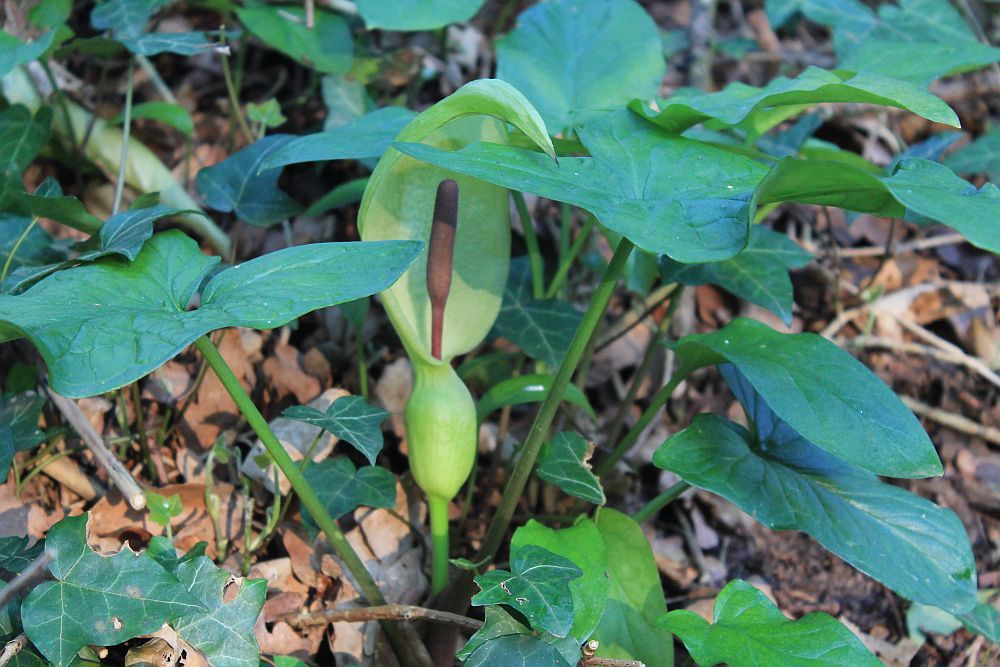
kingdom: Plantae
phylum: Tracheophyta
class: Liliopsida
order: Alismatales
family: Araceae
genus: Arum
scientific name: Arum maculatum
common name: Lords-and-ladies
